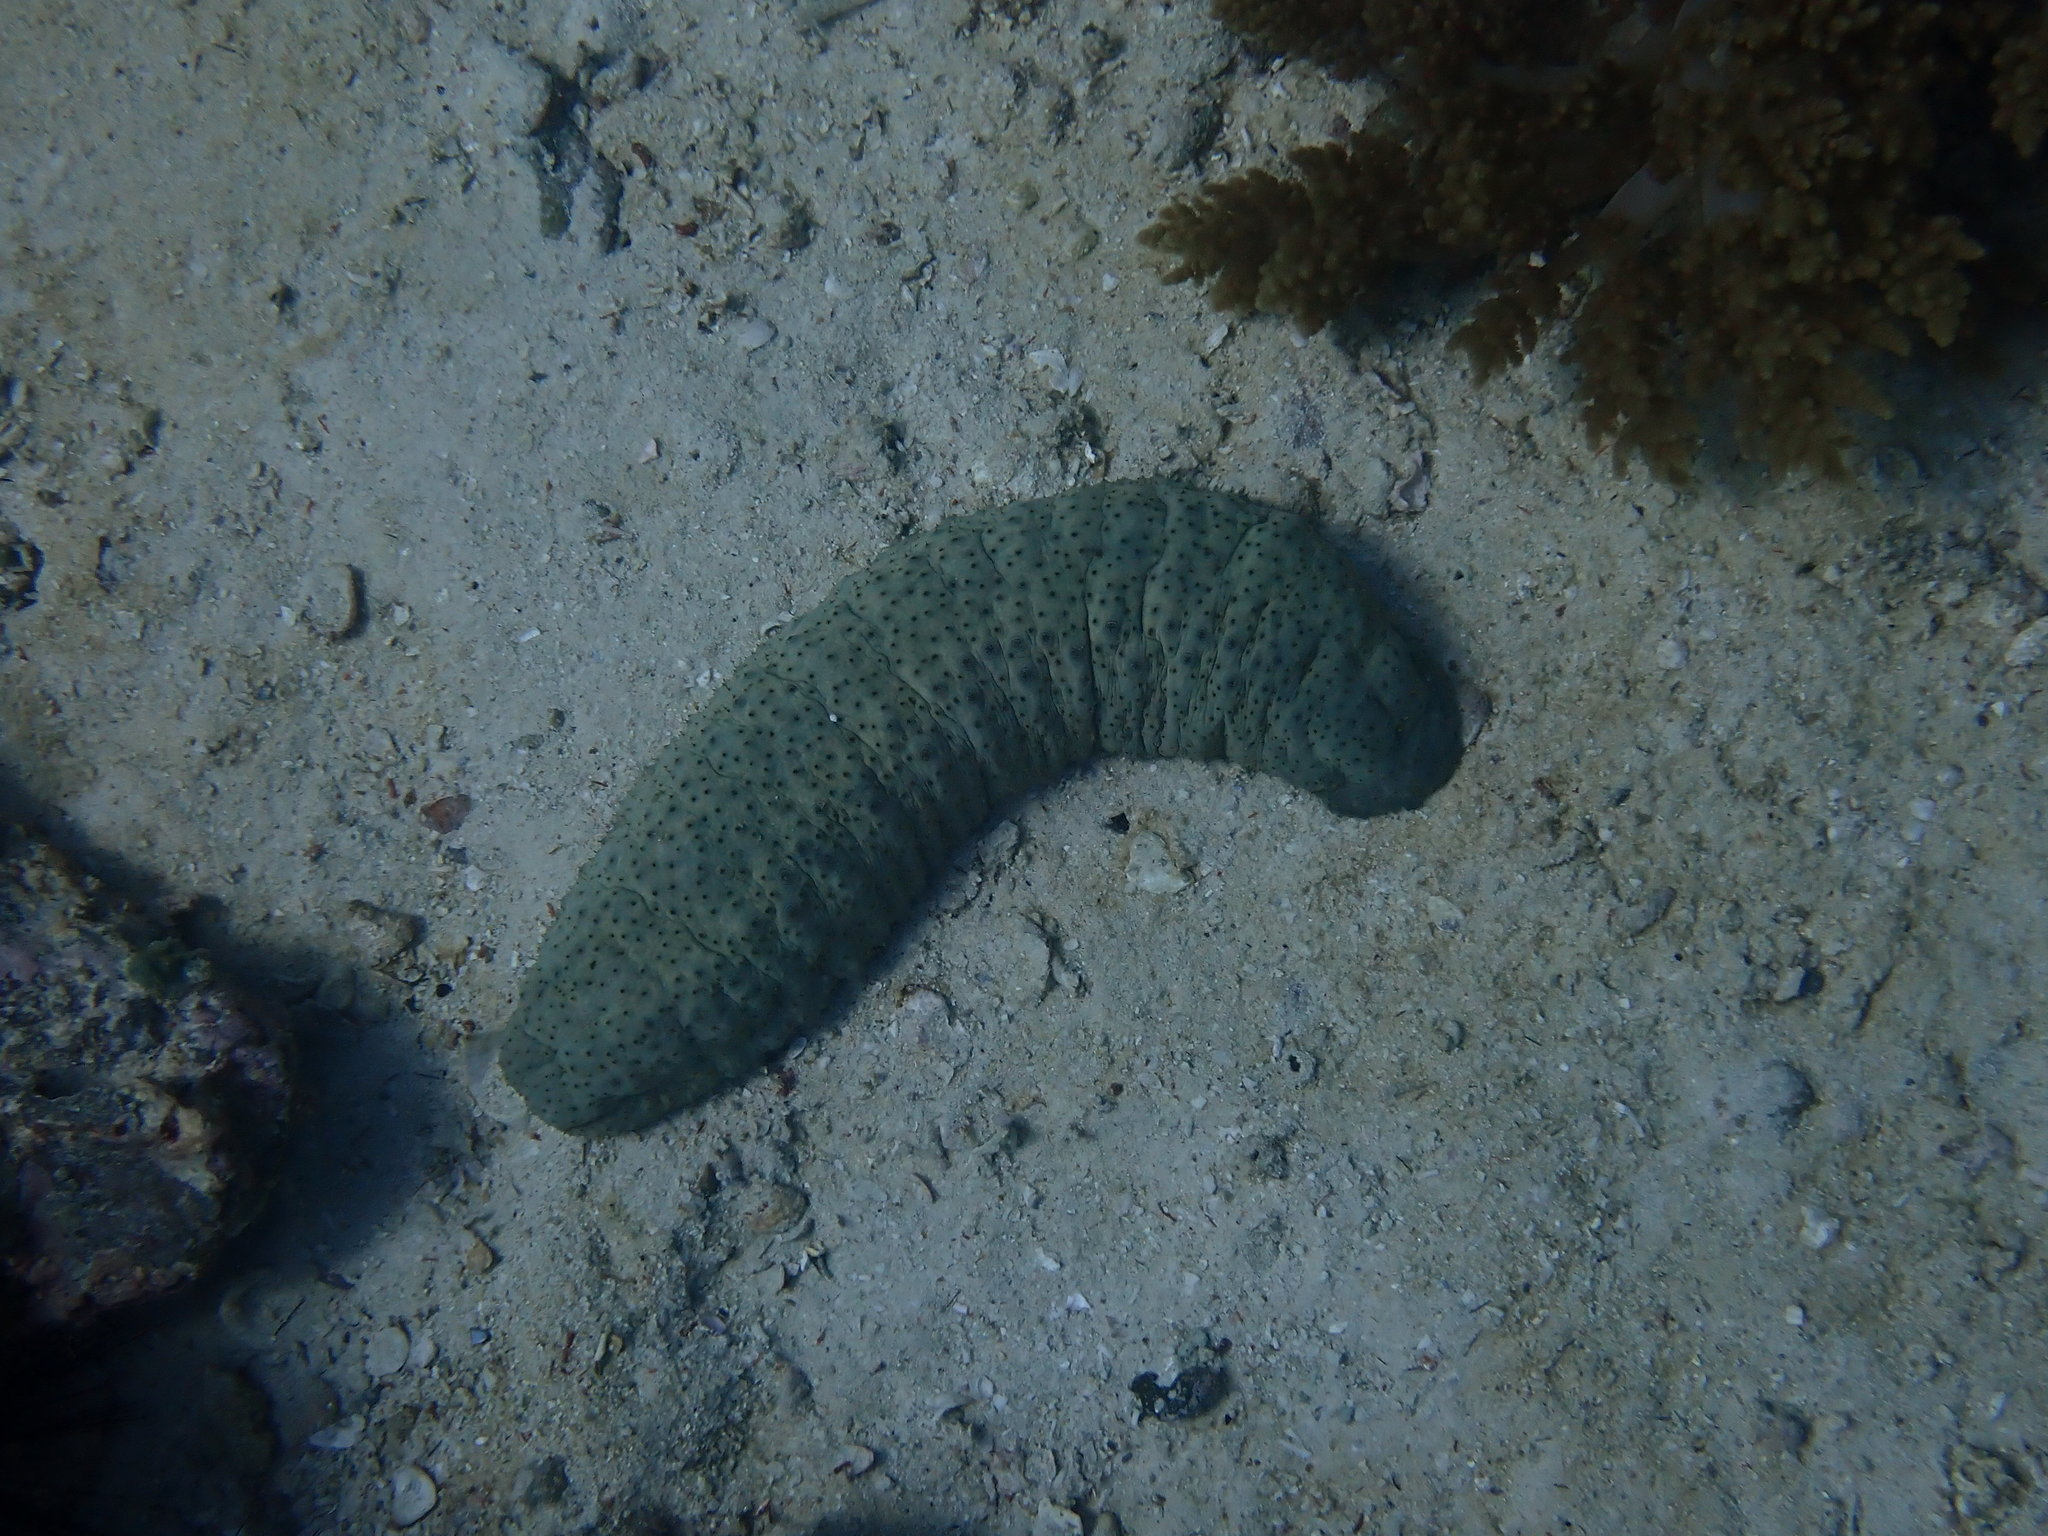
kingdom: Animalia
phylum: Echinodermata
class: Holothuroidea
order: Synallactida
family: Stichopodidae
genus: Stichopus
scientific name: Stichopus herrmanni
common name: Curryfish
